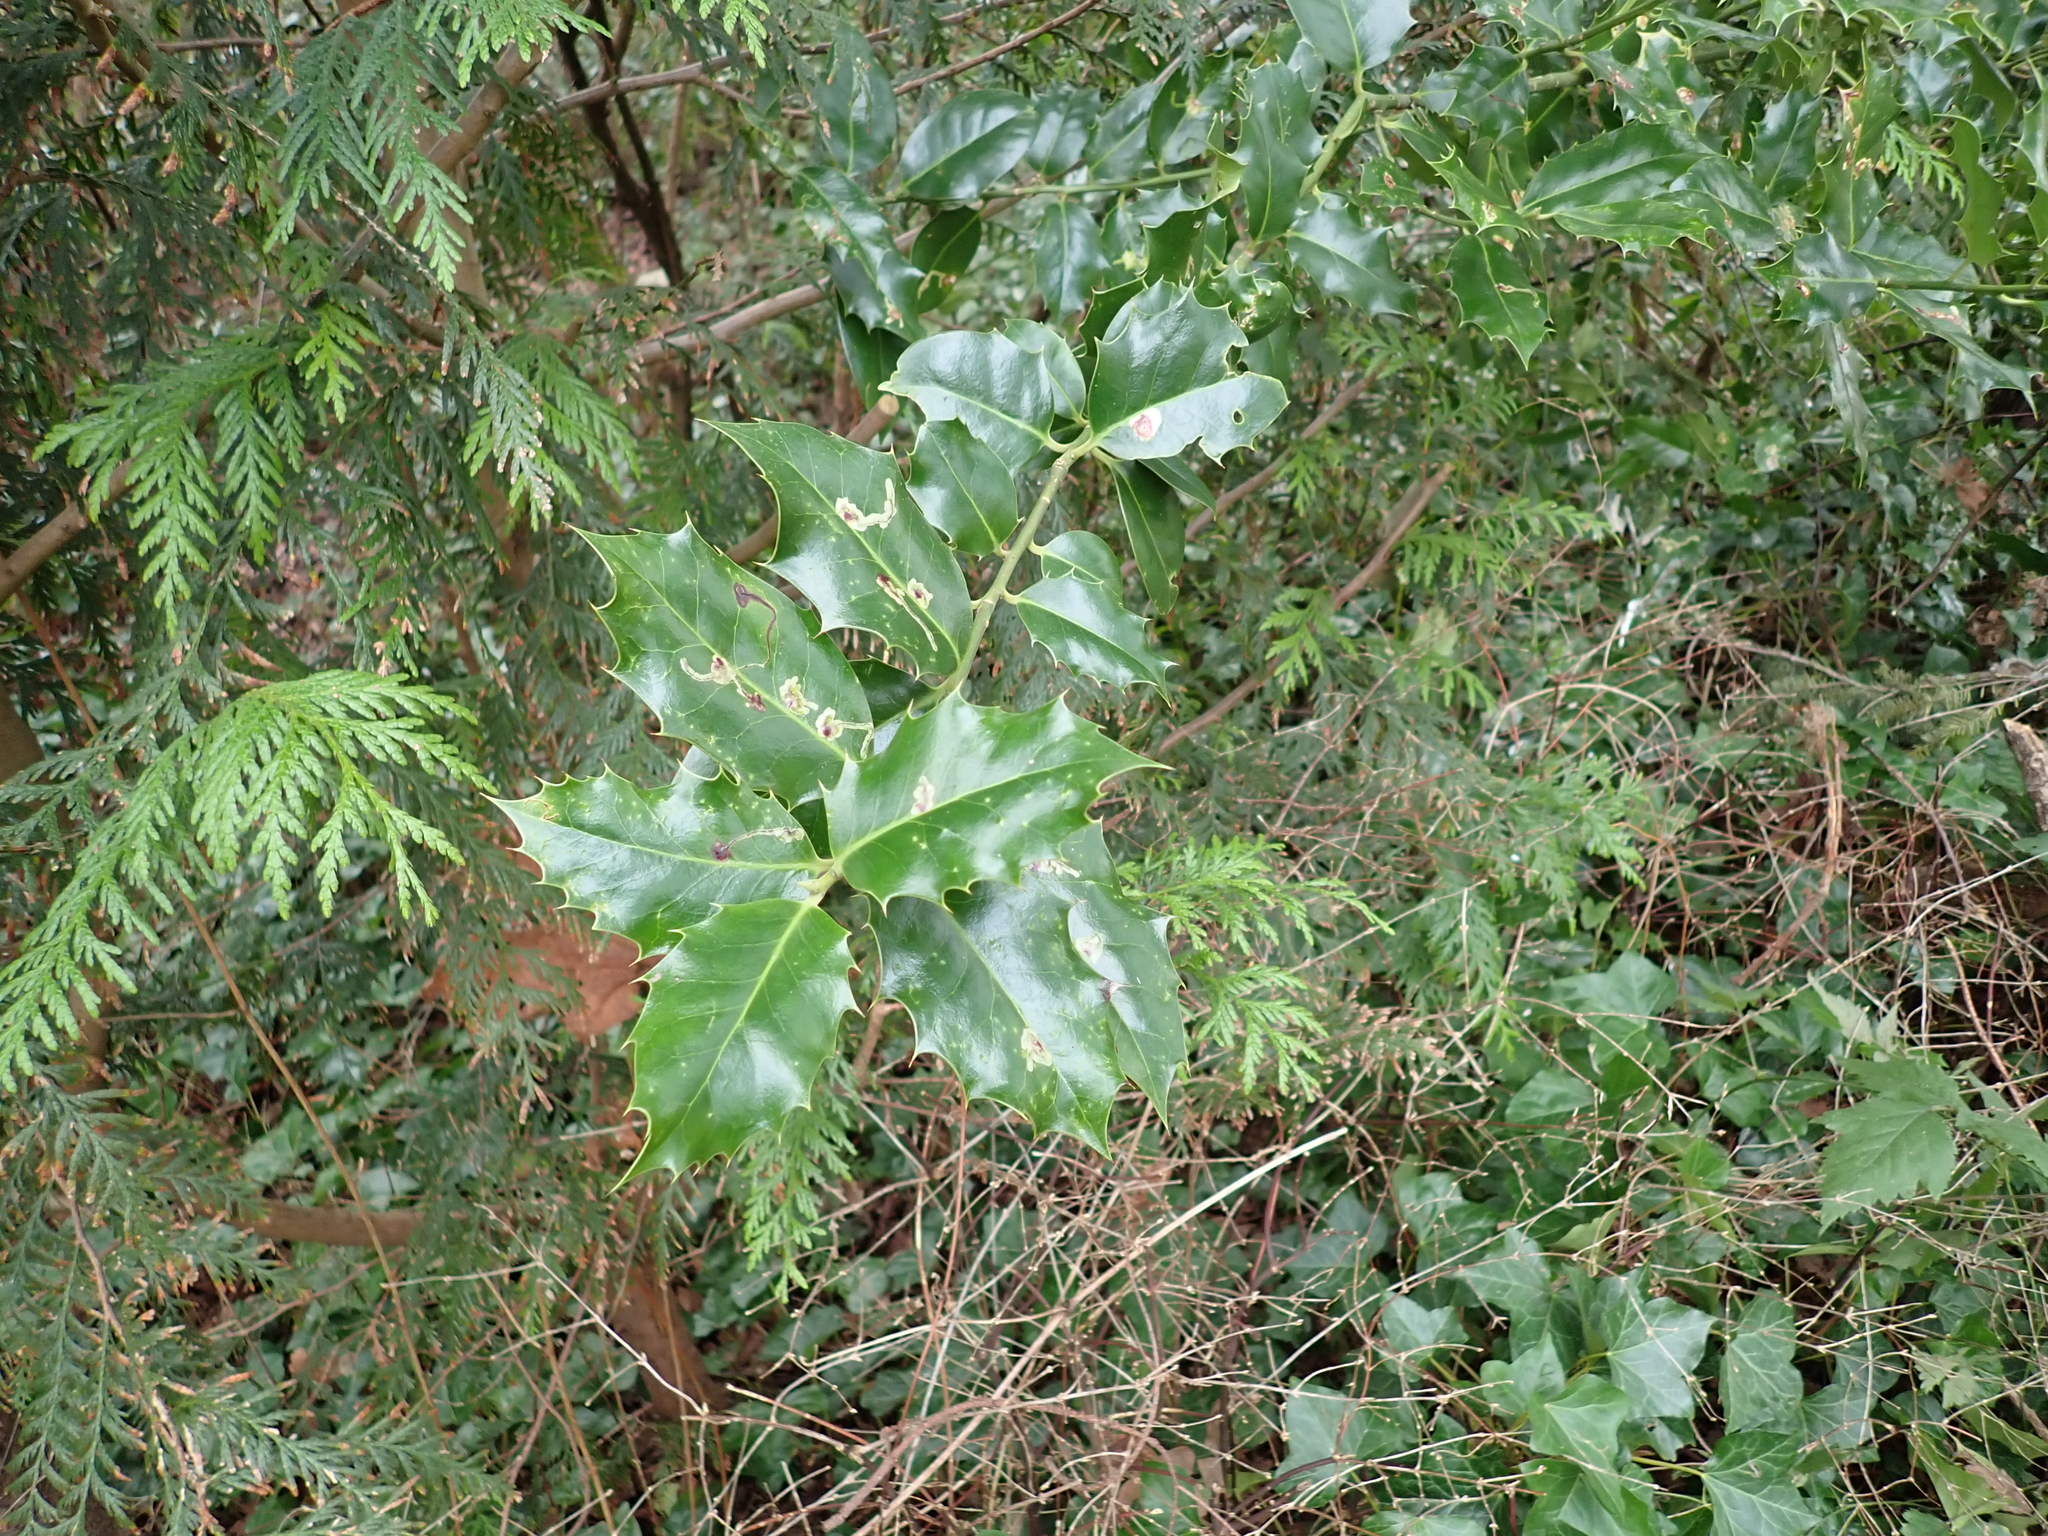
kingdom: Plantae
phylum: Tracheophyta
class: Magnoliopsida
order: Aquifoliales
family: Aquifoliaceae
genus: Ilex
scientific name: Ilex aquifolium
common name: English holly
